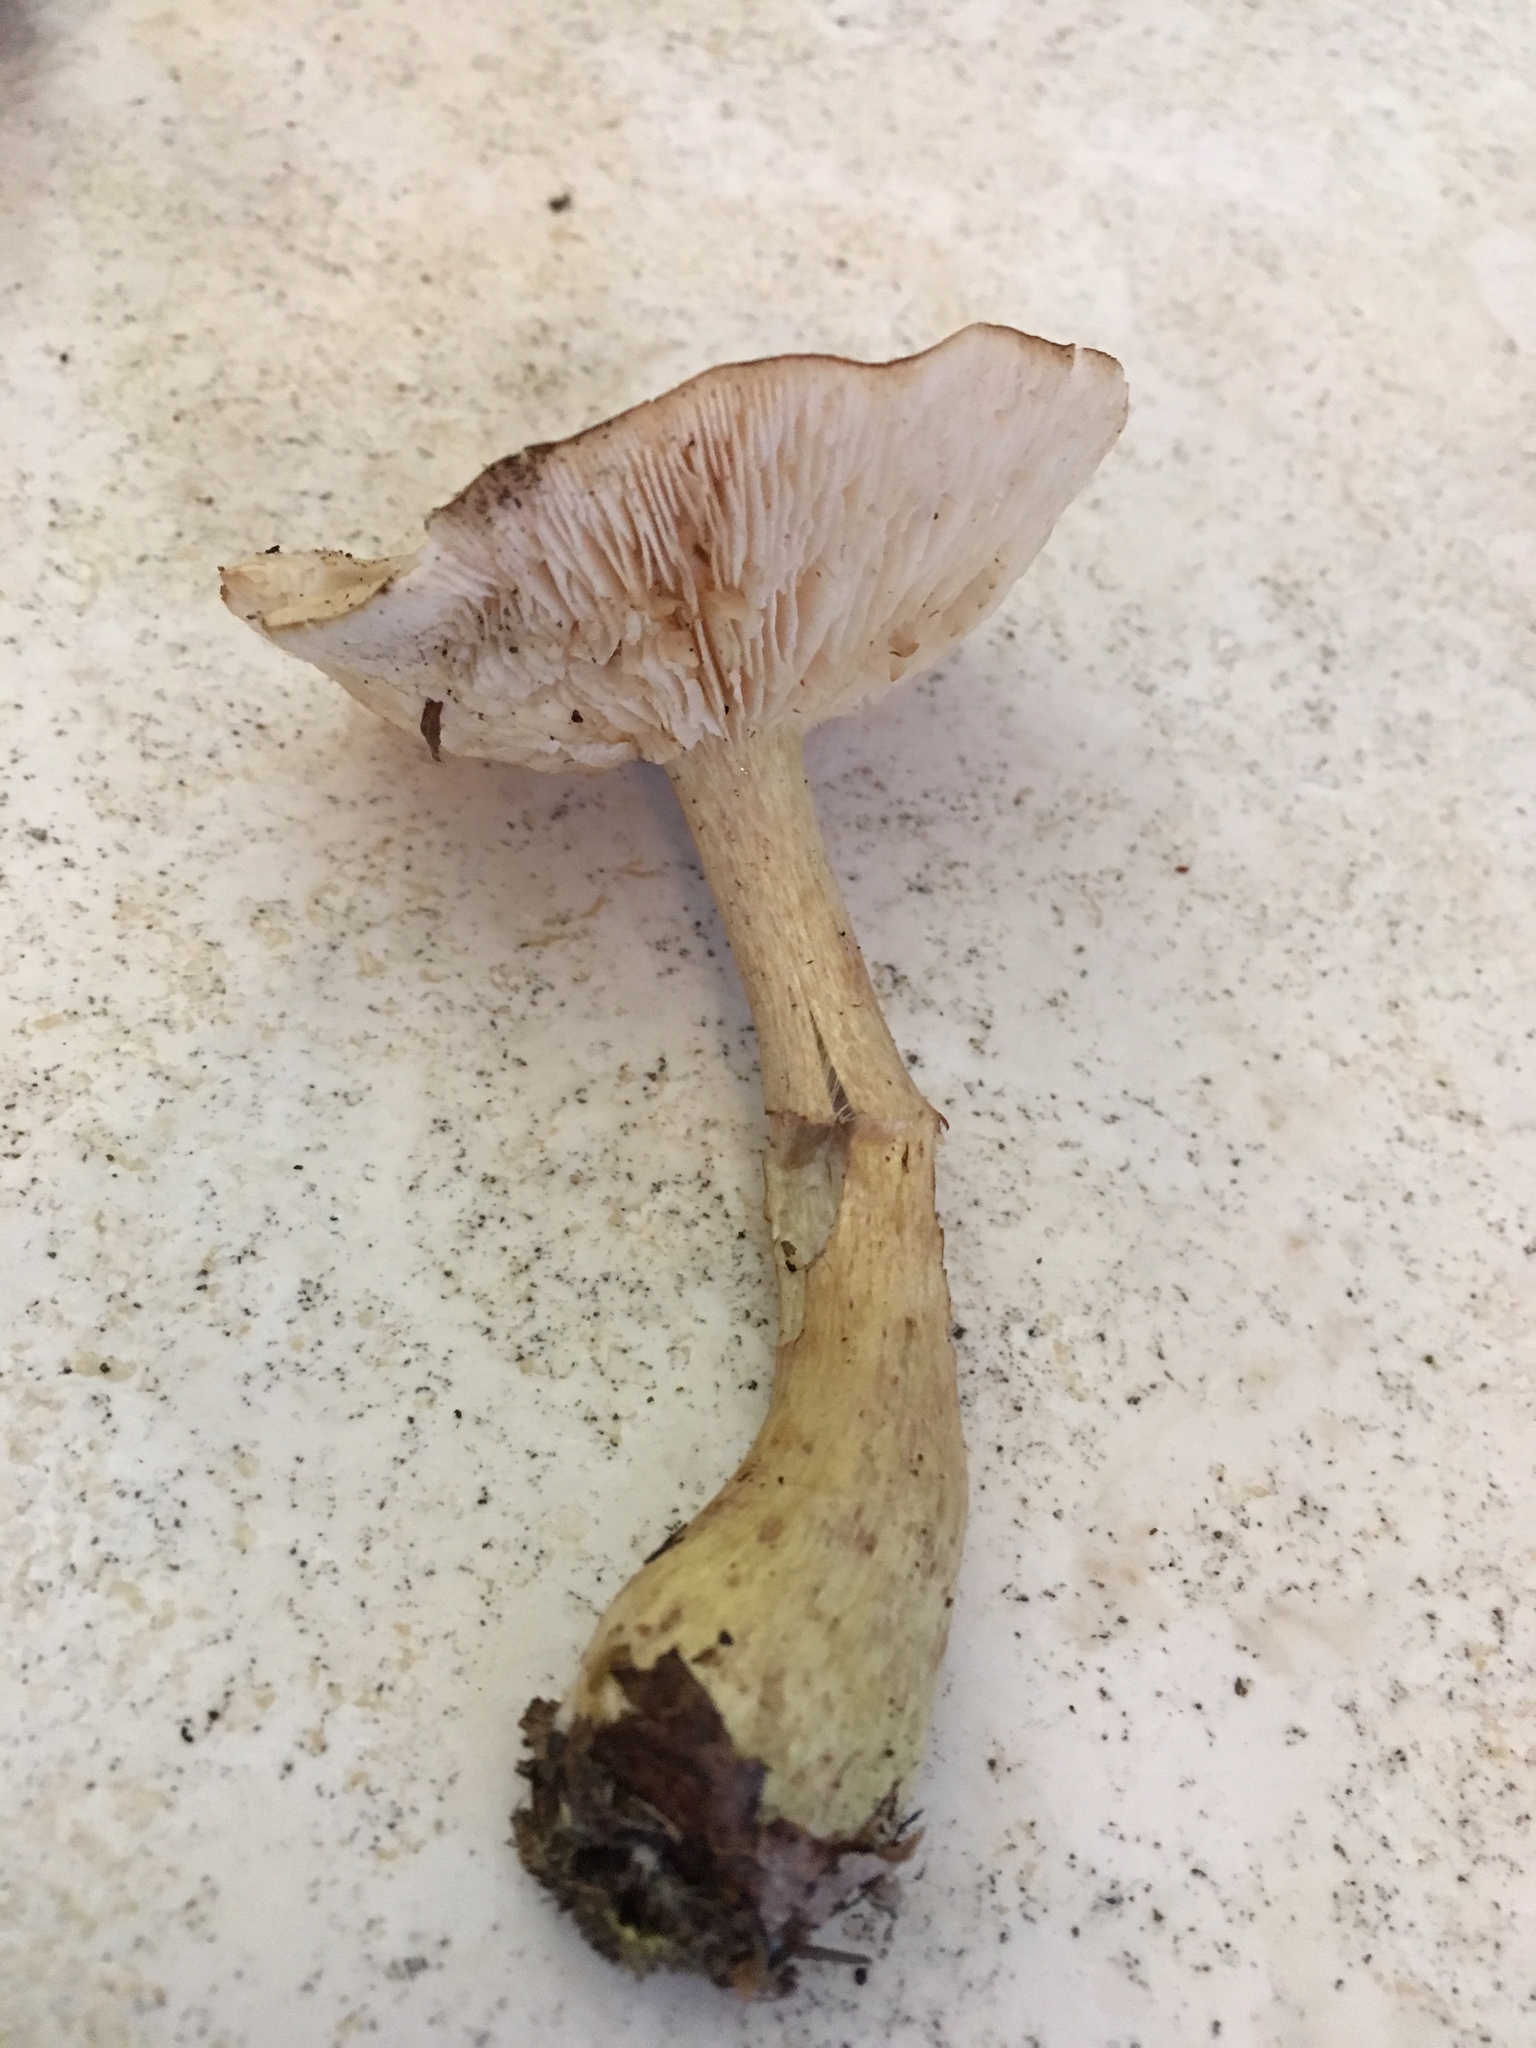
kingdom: Fungi
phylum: Basidiomycota
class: Agaricomycetes
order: Agaricales
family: Tricholomataceae
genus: Tricholoma
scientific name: Tricholoma odorum
